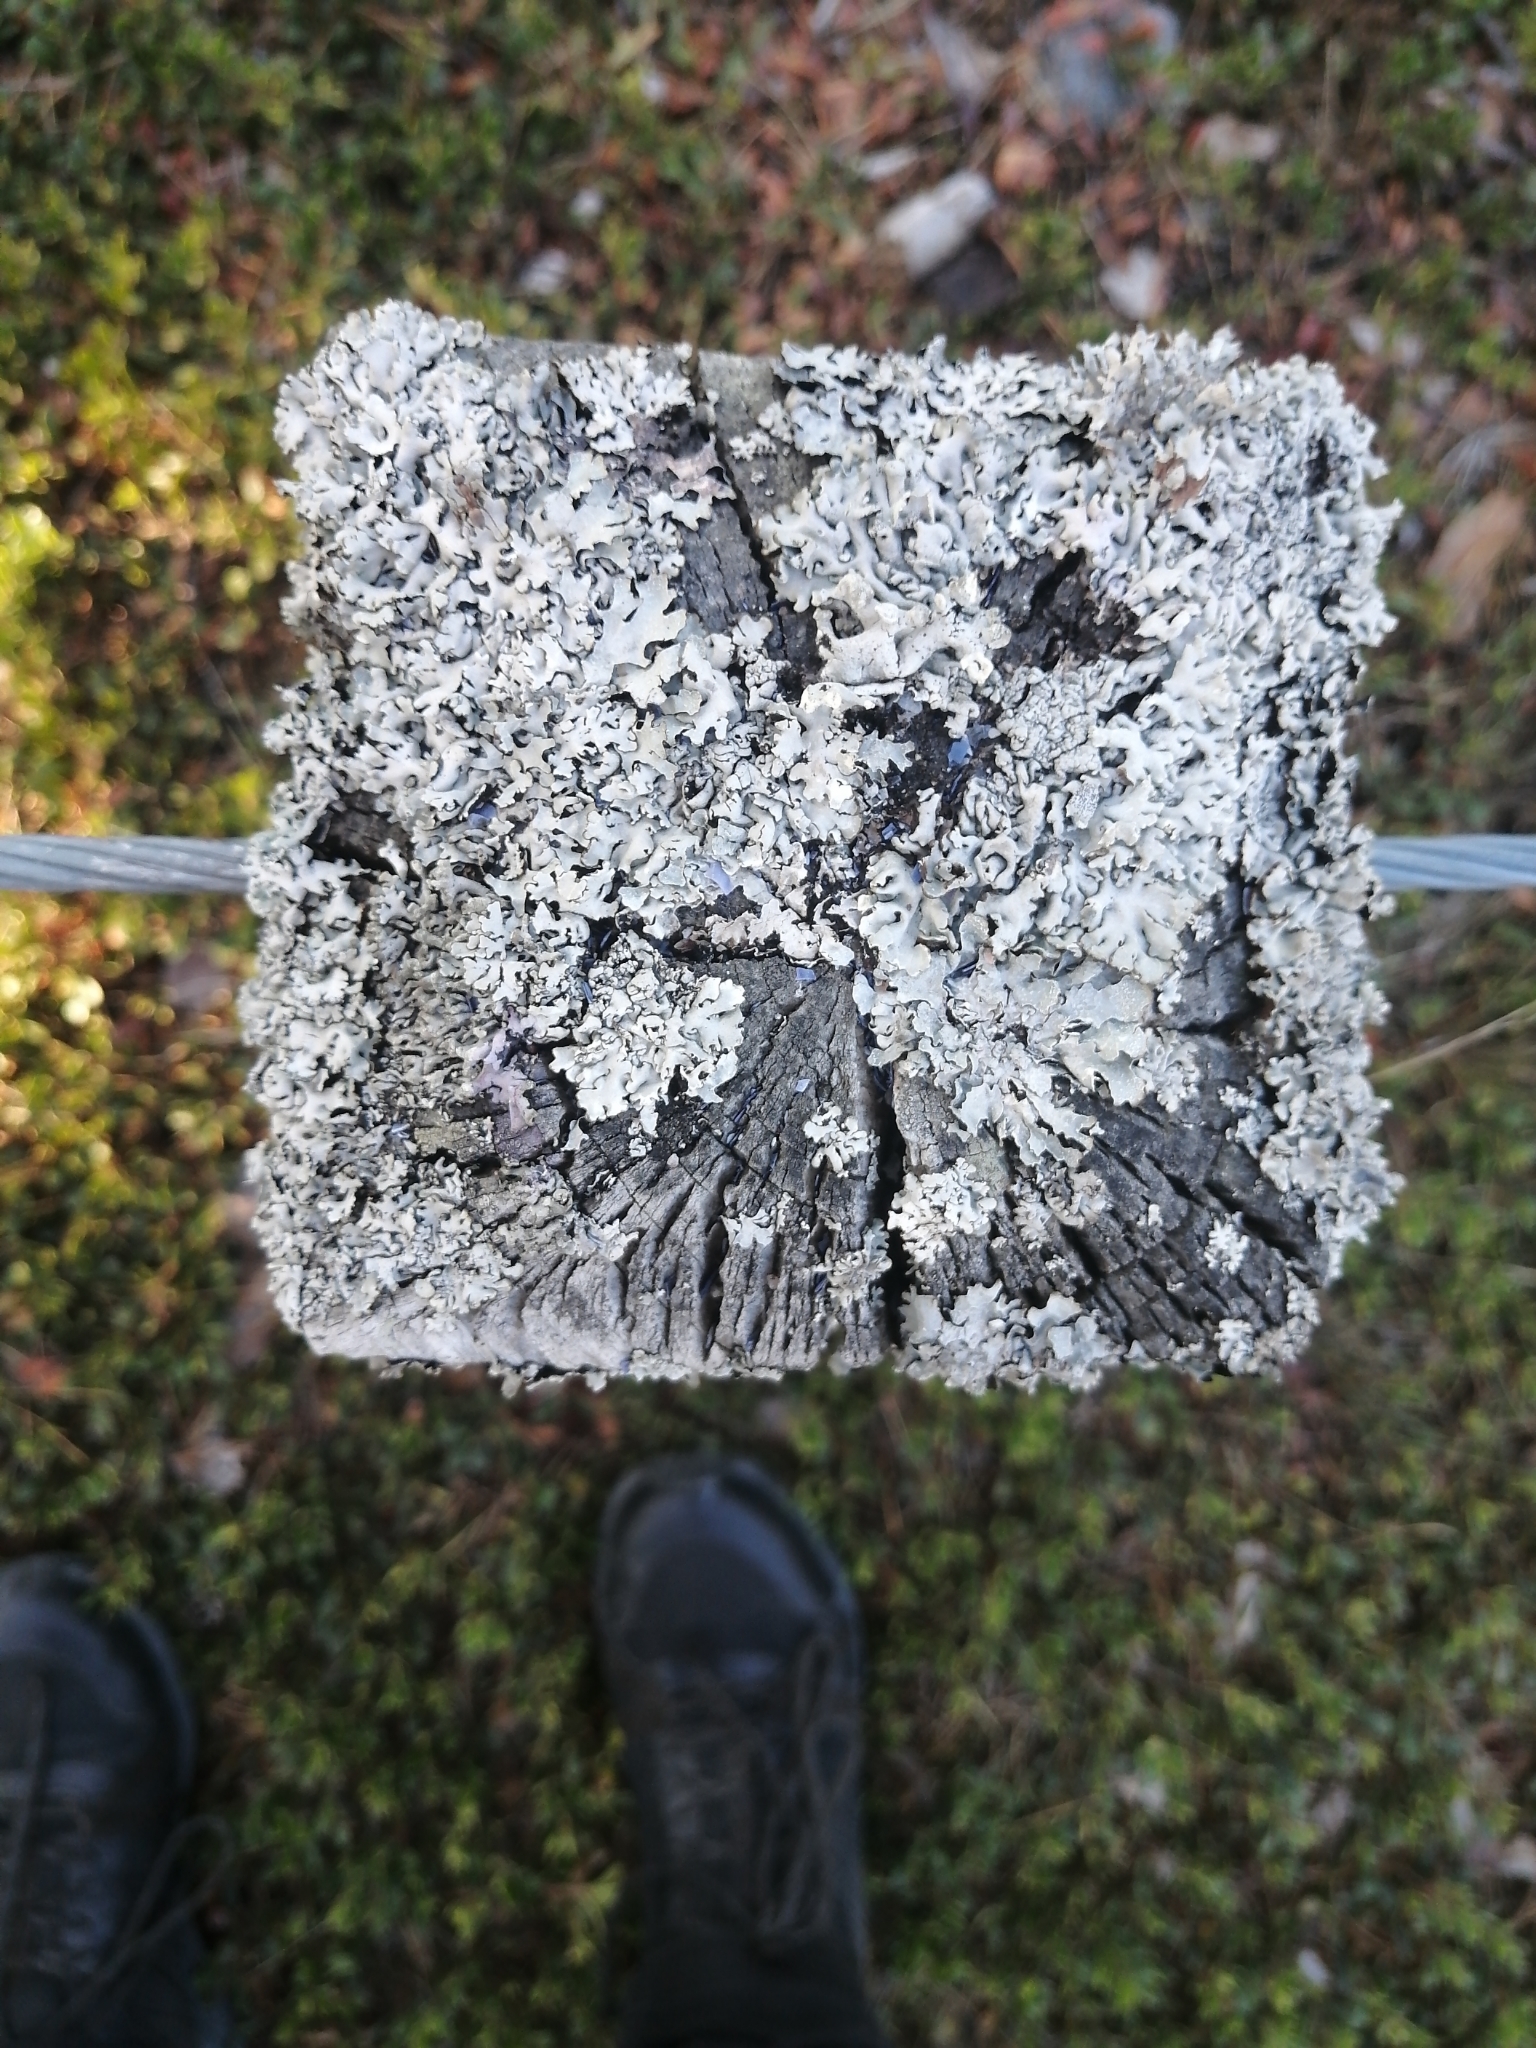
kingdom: Fungi
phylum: Ascomycota
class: Lecanoromycetes
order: Lecanorales
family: Parmeliaceae
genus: Parmelia
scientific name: Parmelia sulcata
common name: Netted shield lichen
